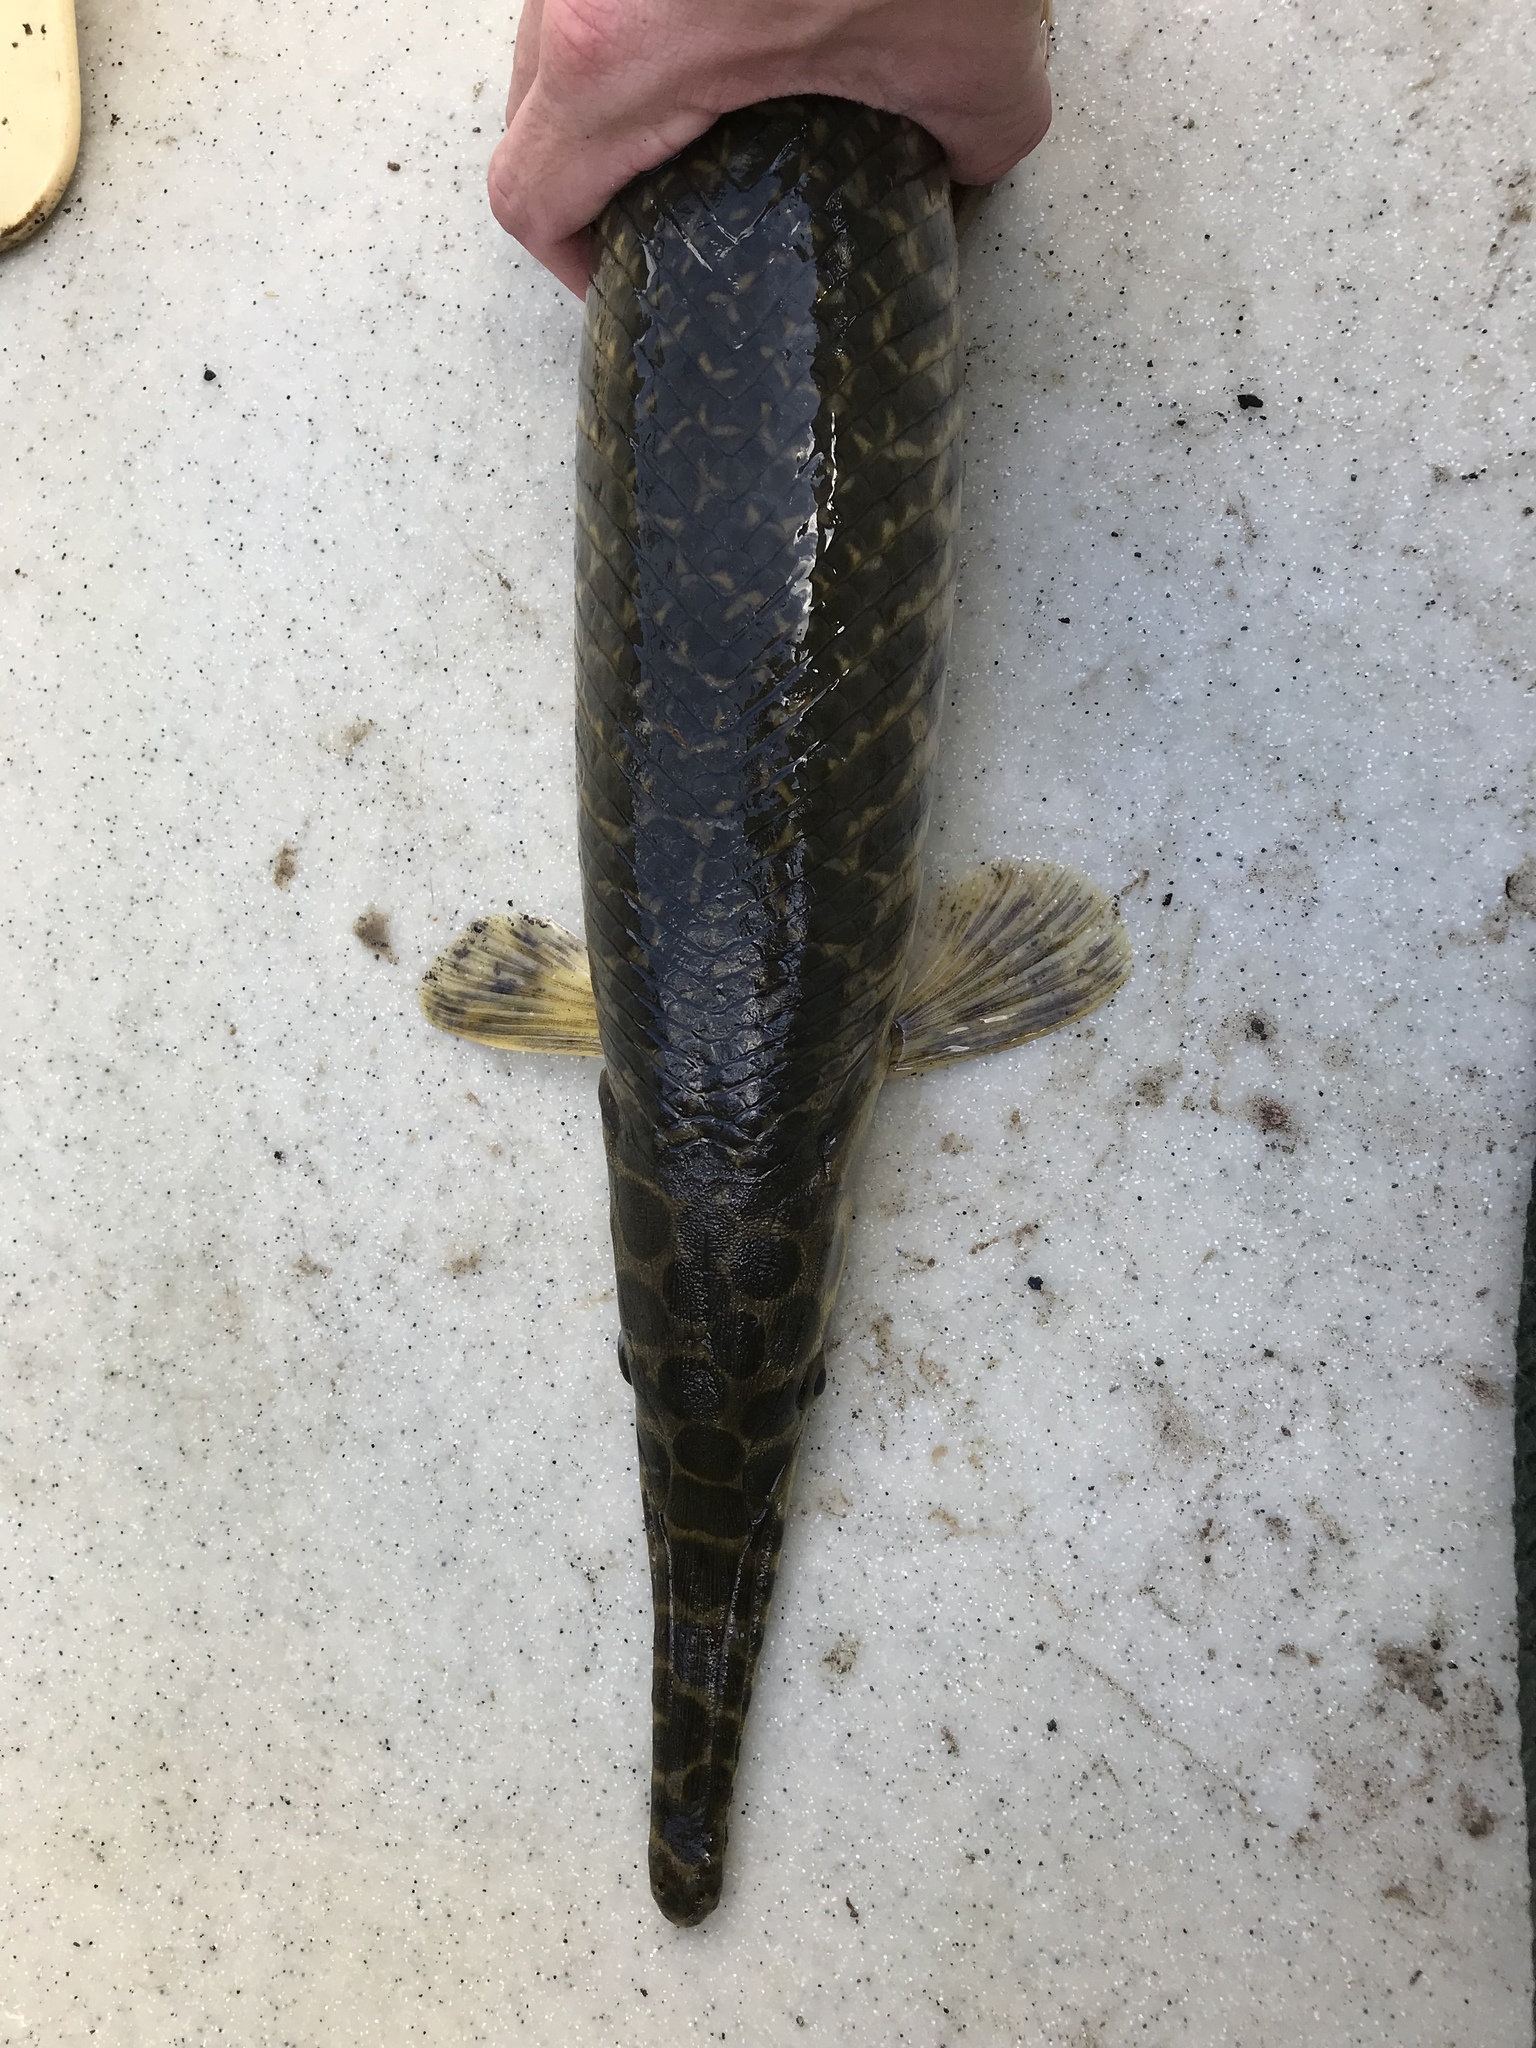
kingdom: Animalia
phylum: Chordata
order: Lepisosteiformes
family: Lepisosteidae
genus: Lepisosteus
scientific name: Lepisosteus oculatus
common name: Spotted gar
